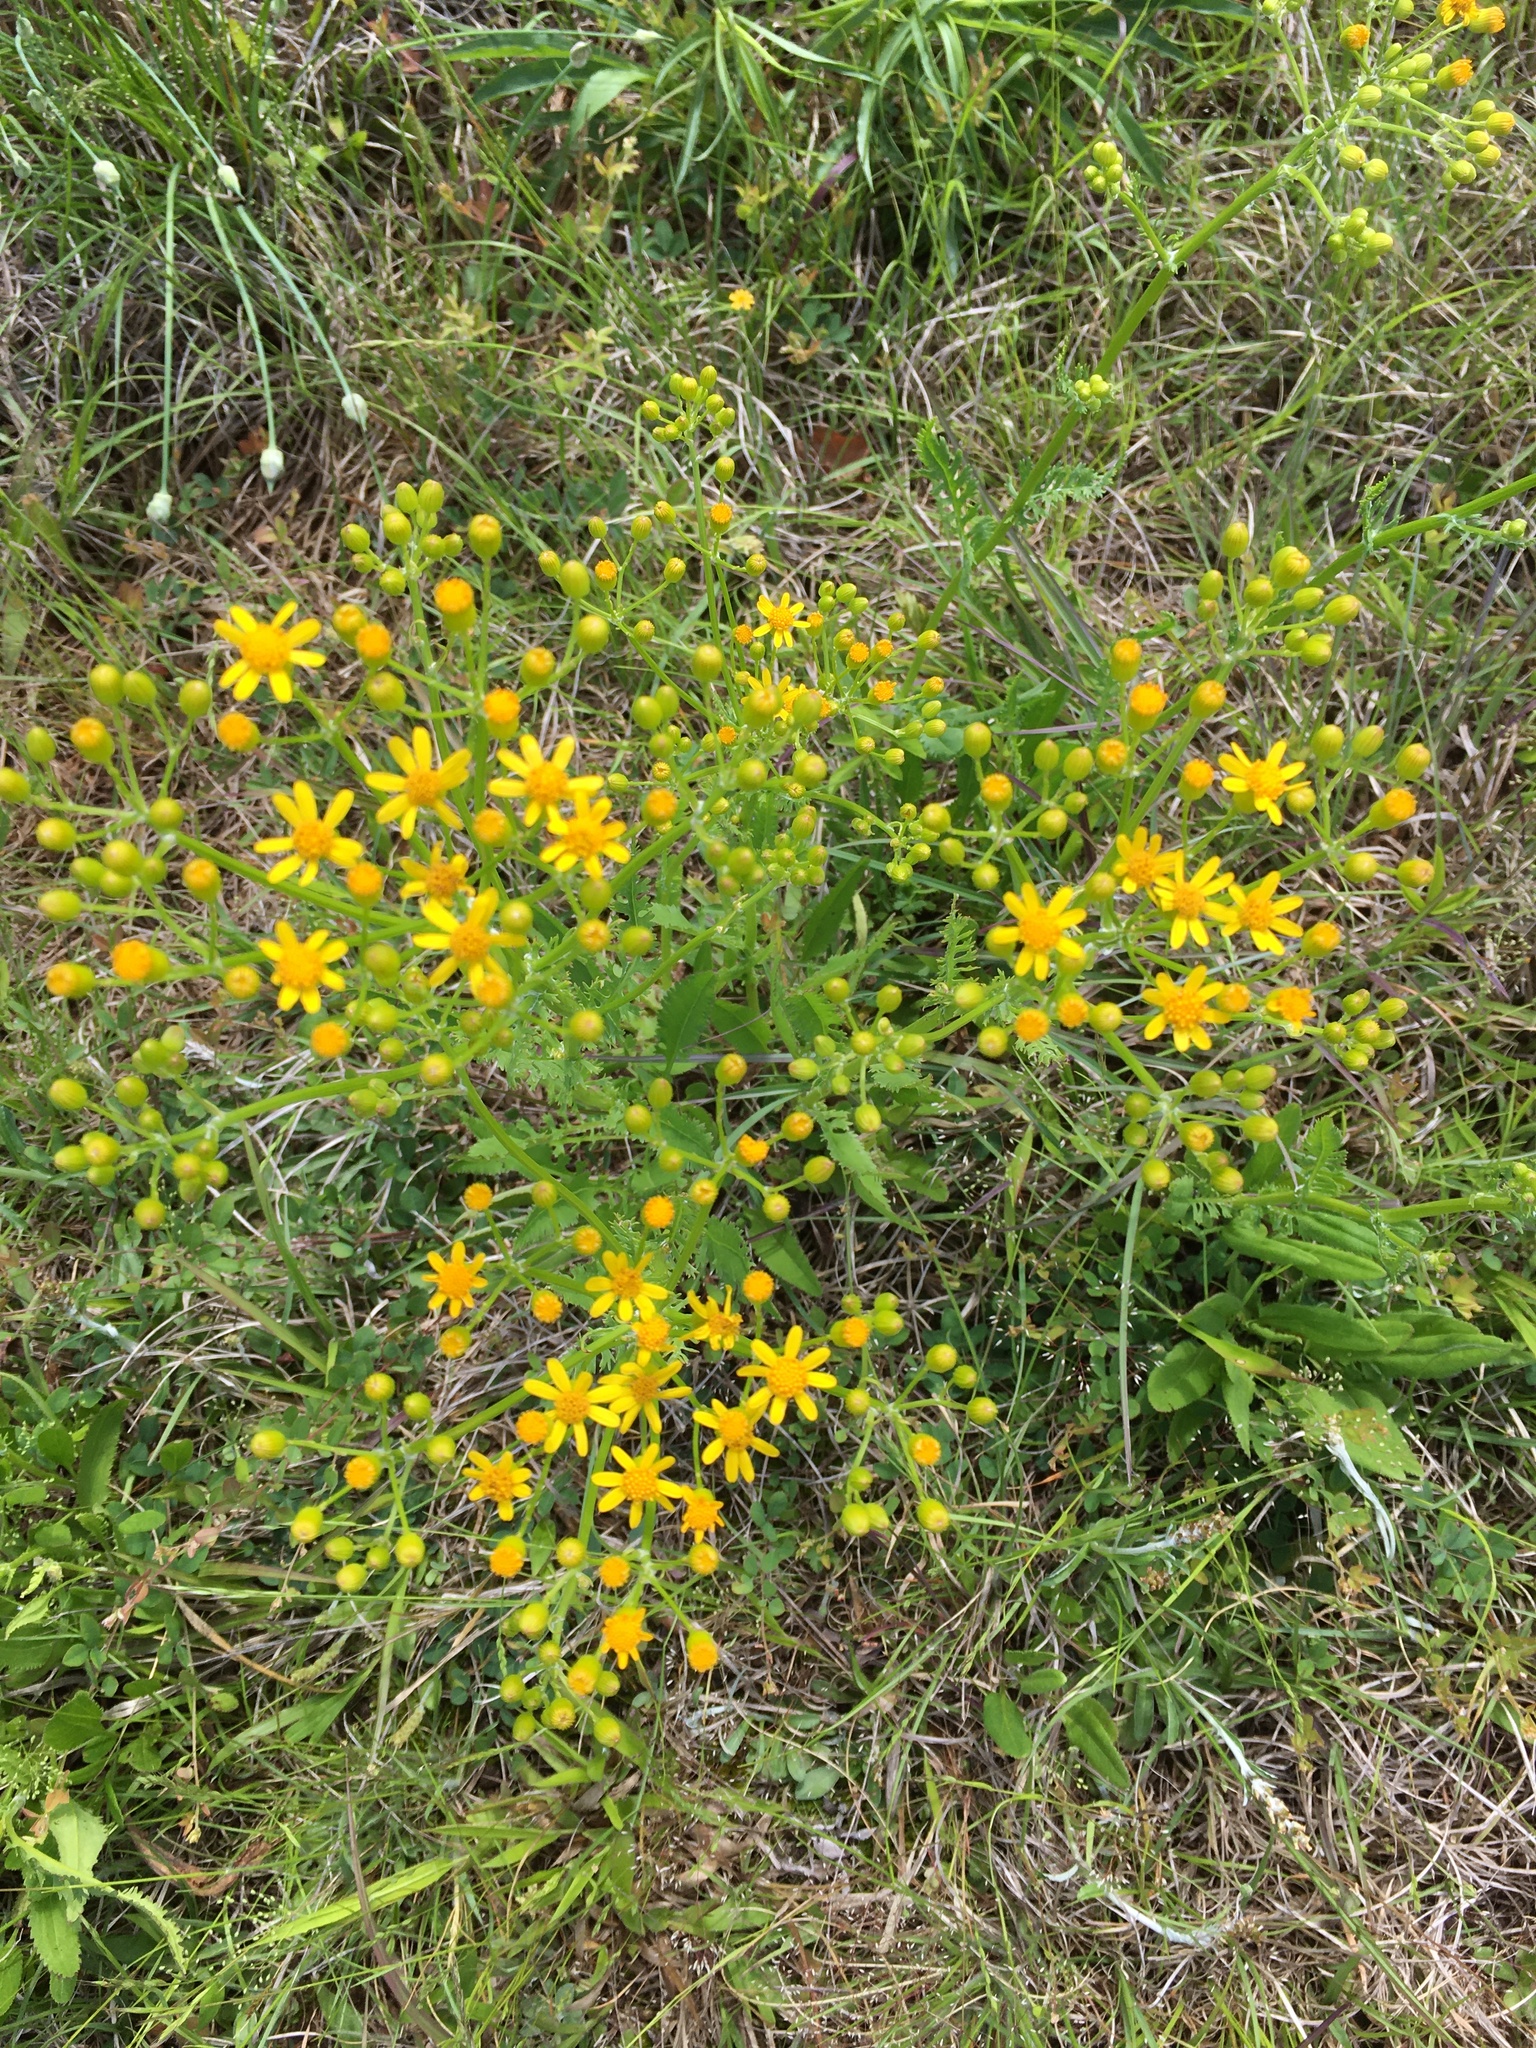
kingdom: Plantae
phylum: Tracheophyta
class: Magnoliopsida
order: Asterales
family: Asteraceae
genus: Packera
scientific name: Packera anonyma
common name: Small ragwort
